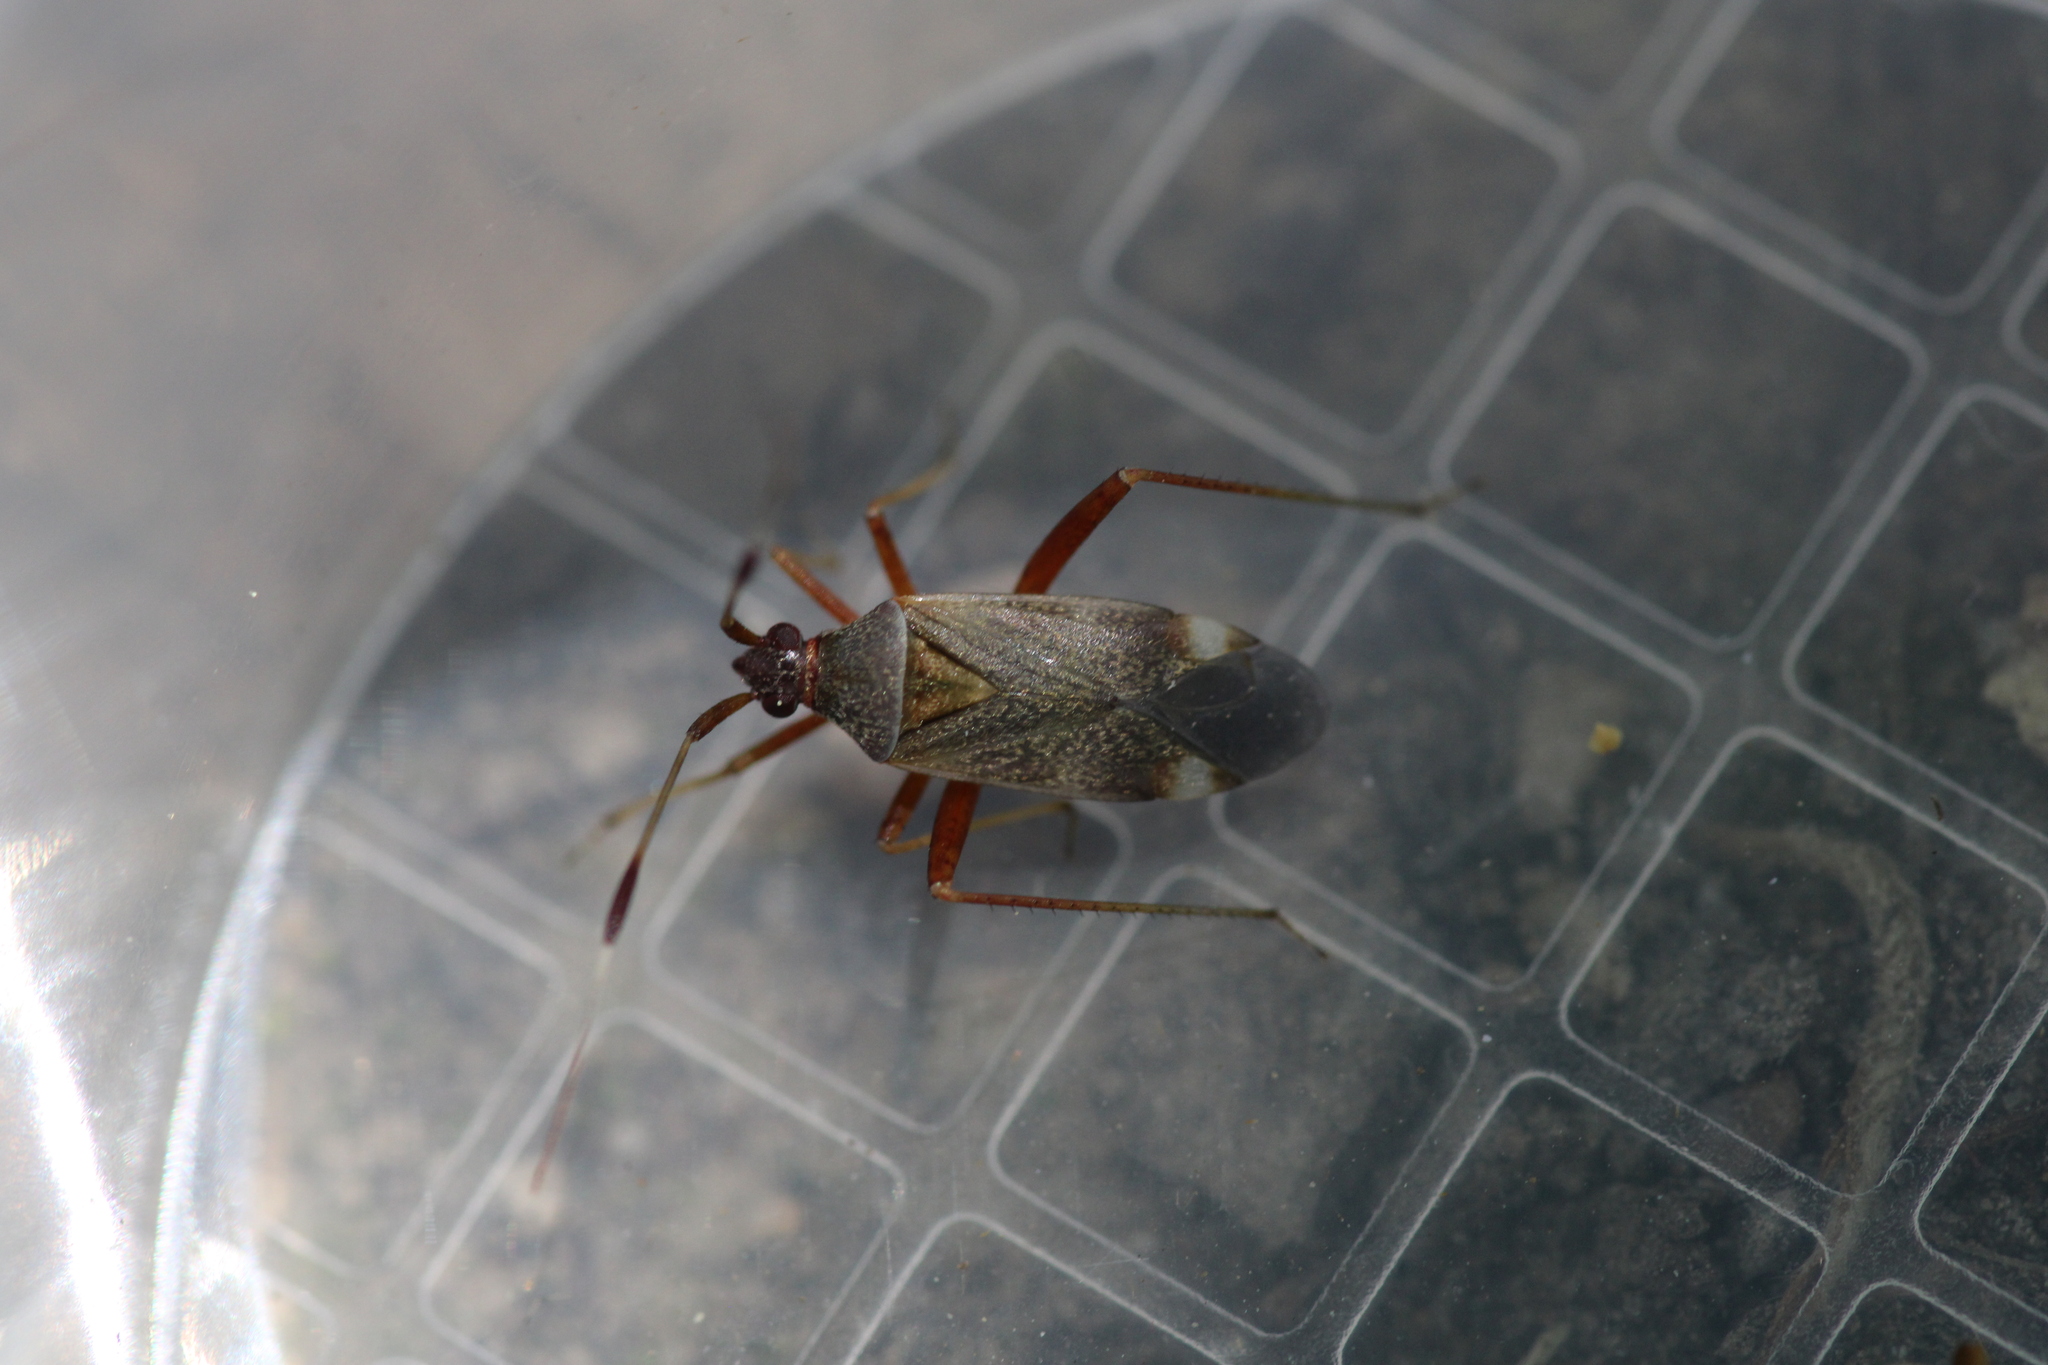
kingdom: Animalia
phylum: Arthropoda
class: Insecta
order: Hemiptera
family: Miridae
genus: Closterotomus
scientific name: Closterotomus biclavatus
